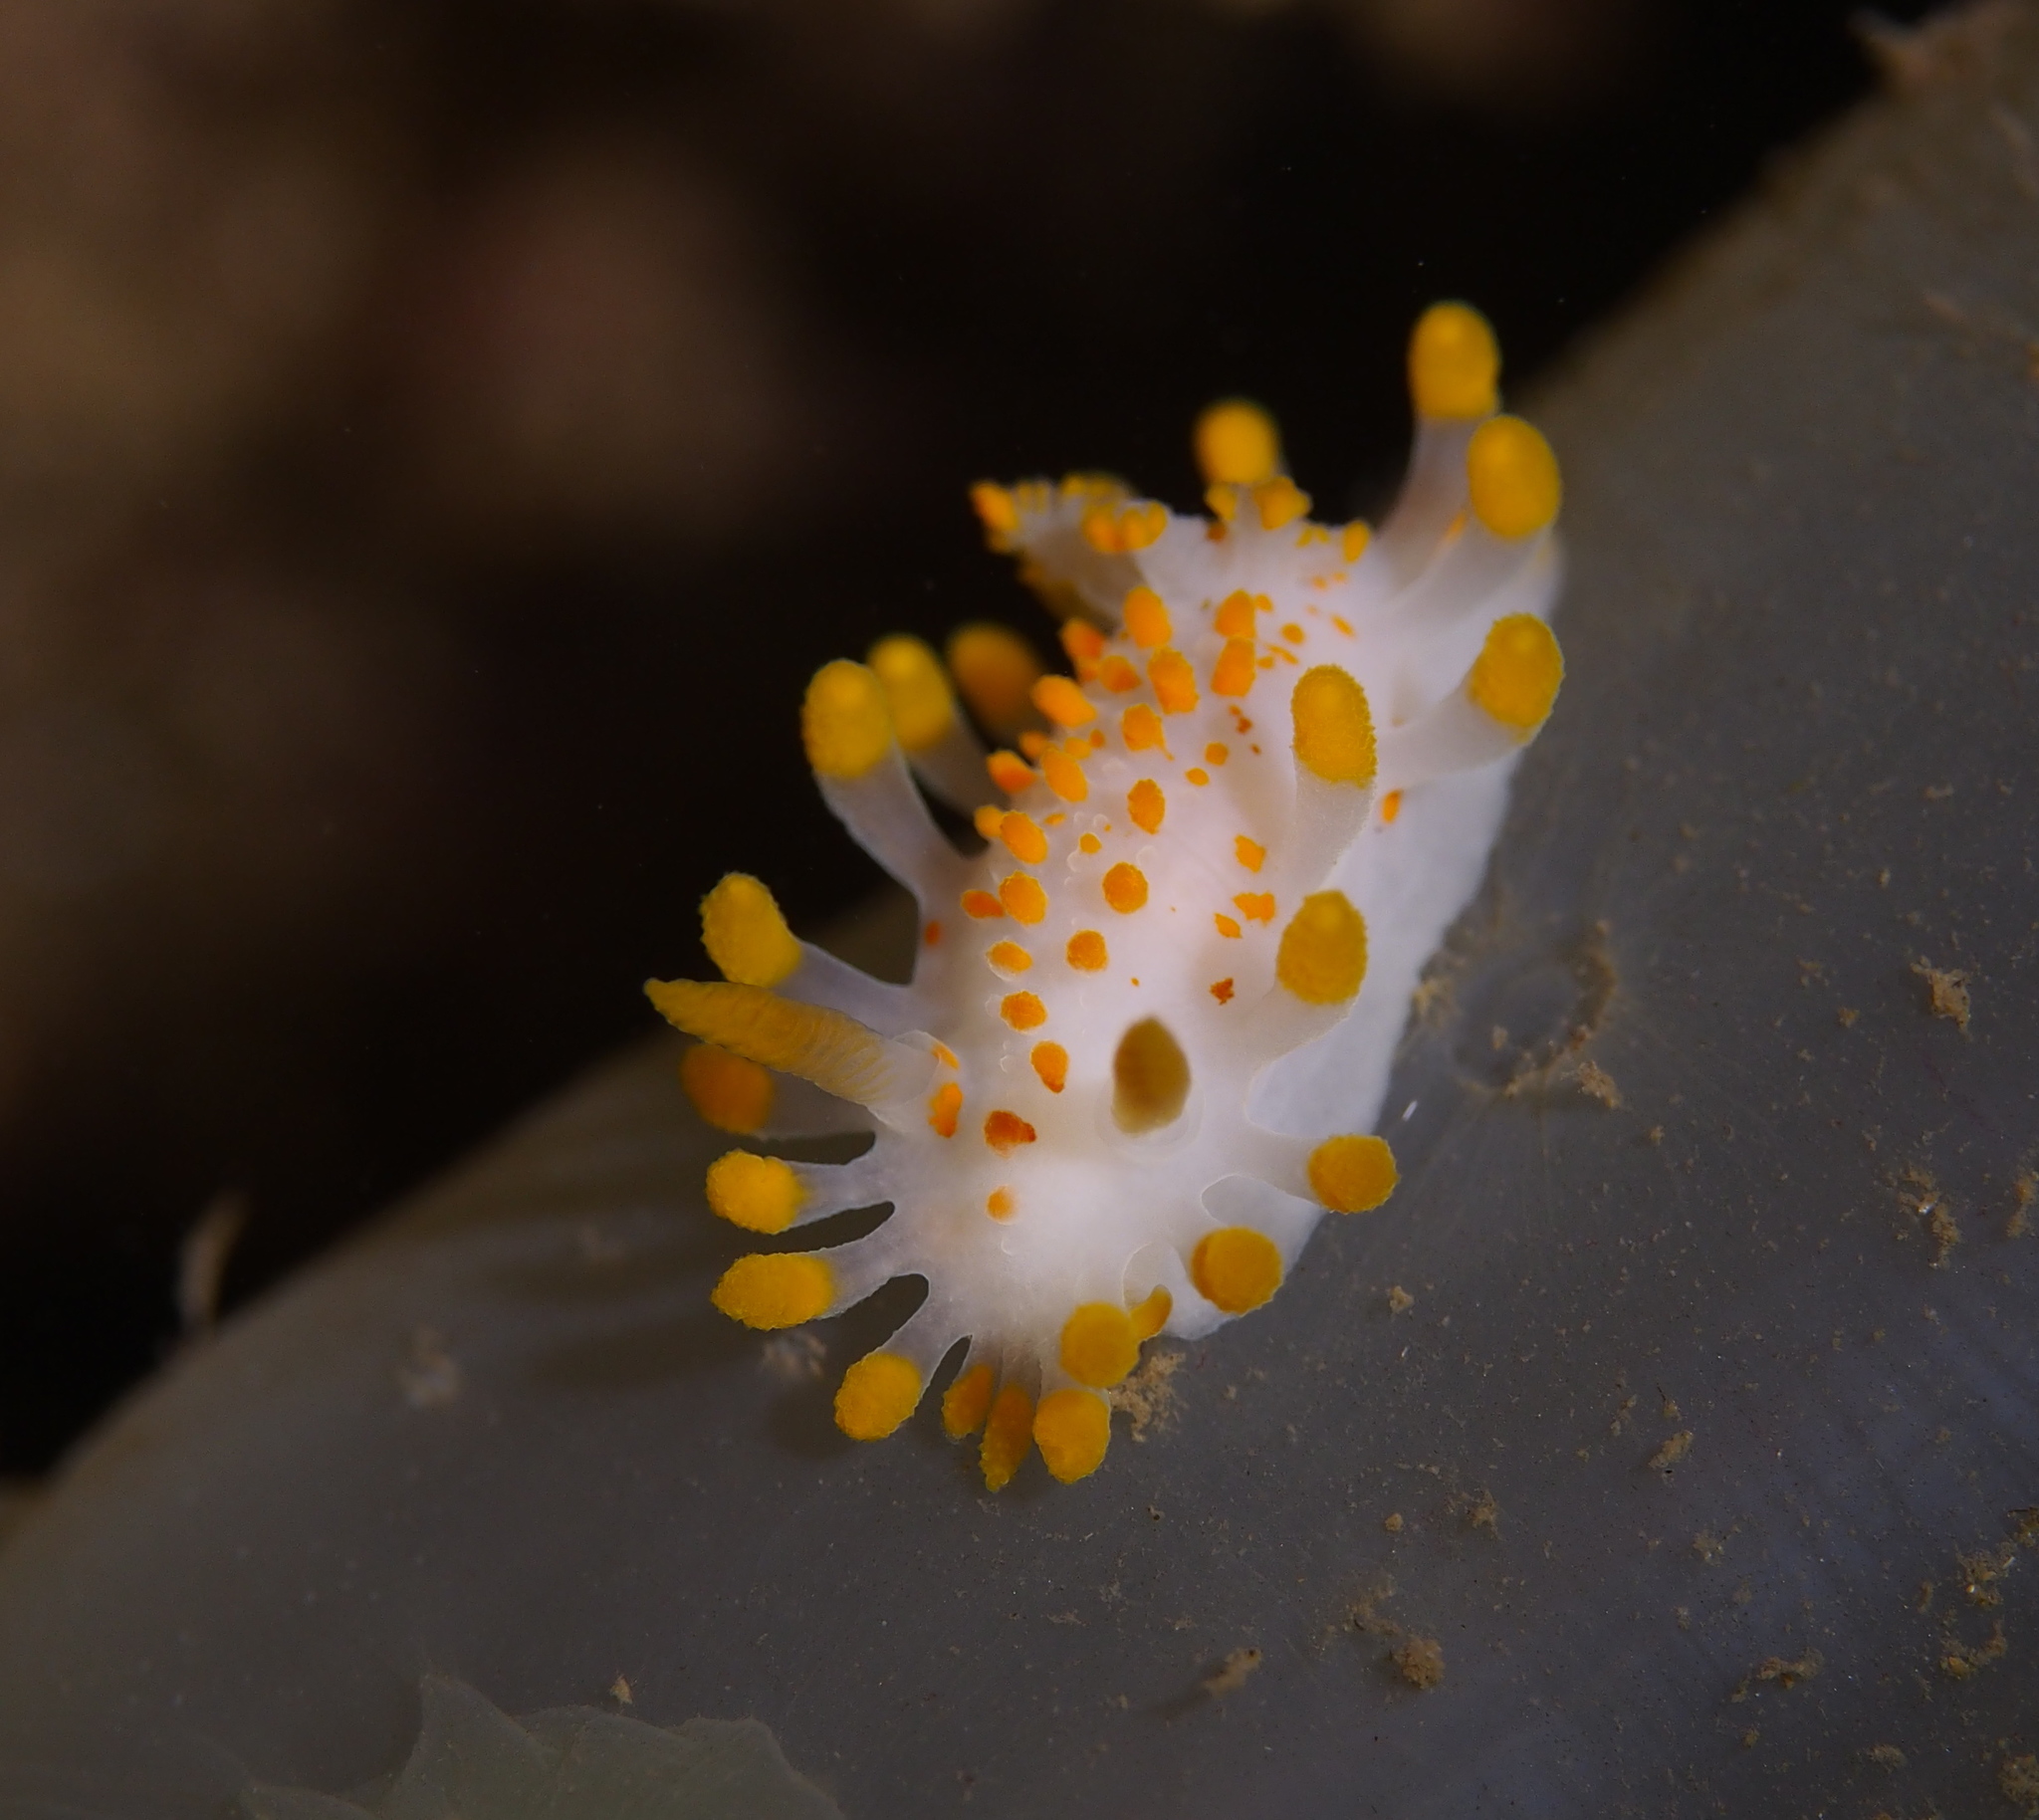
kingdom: Animalia
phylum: Mollusca
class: Gastropoda
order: Nudibranchia
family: Polyceridae
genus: Limacia
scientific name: Limacia clavigera
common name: Orange-clubbed sea slug
